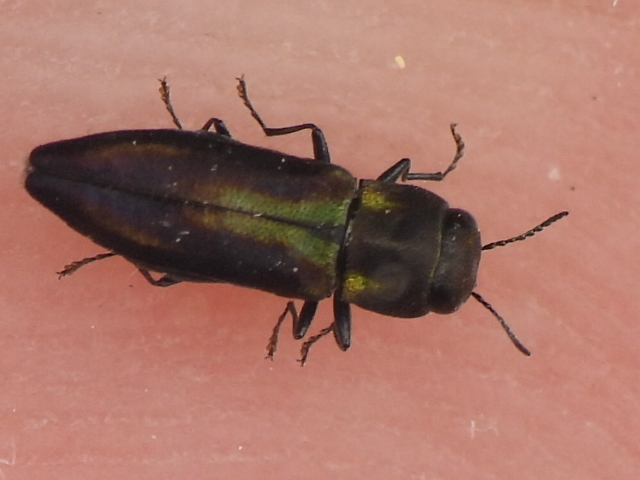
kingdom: Animalia
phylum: Arthropoda
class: Insecta
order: Coleoptera
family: Buprestidae
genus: Anthaxia
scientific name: Anthaxia quercata
